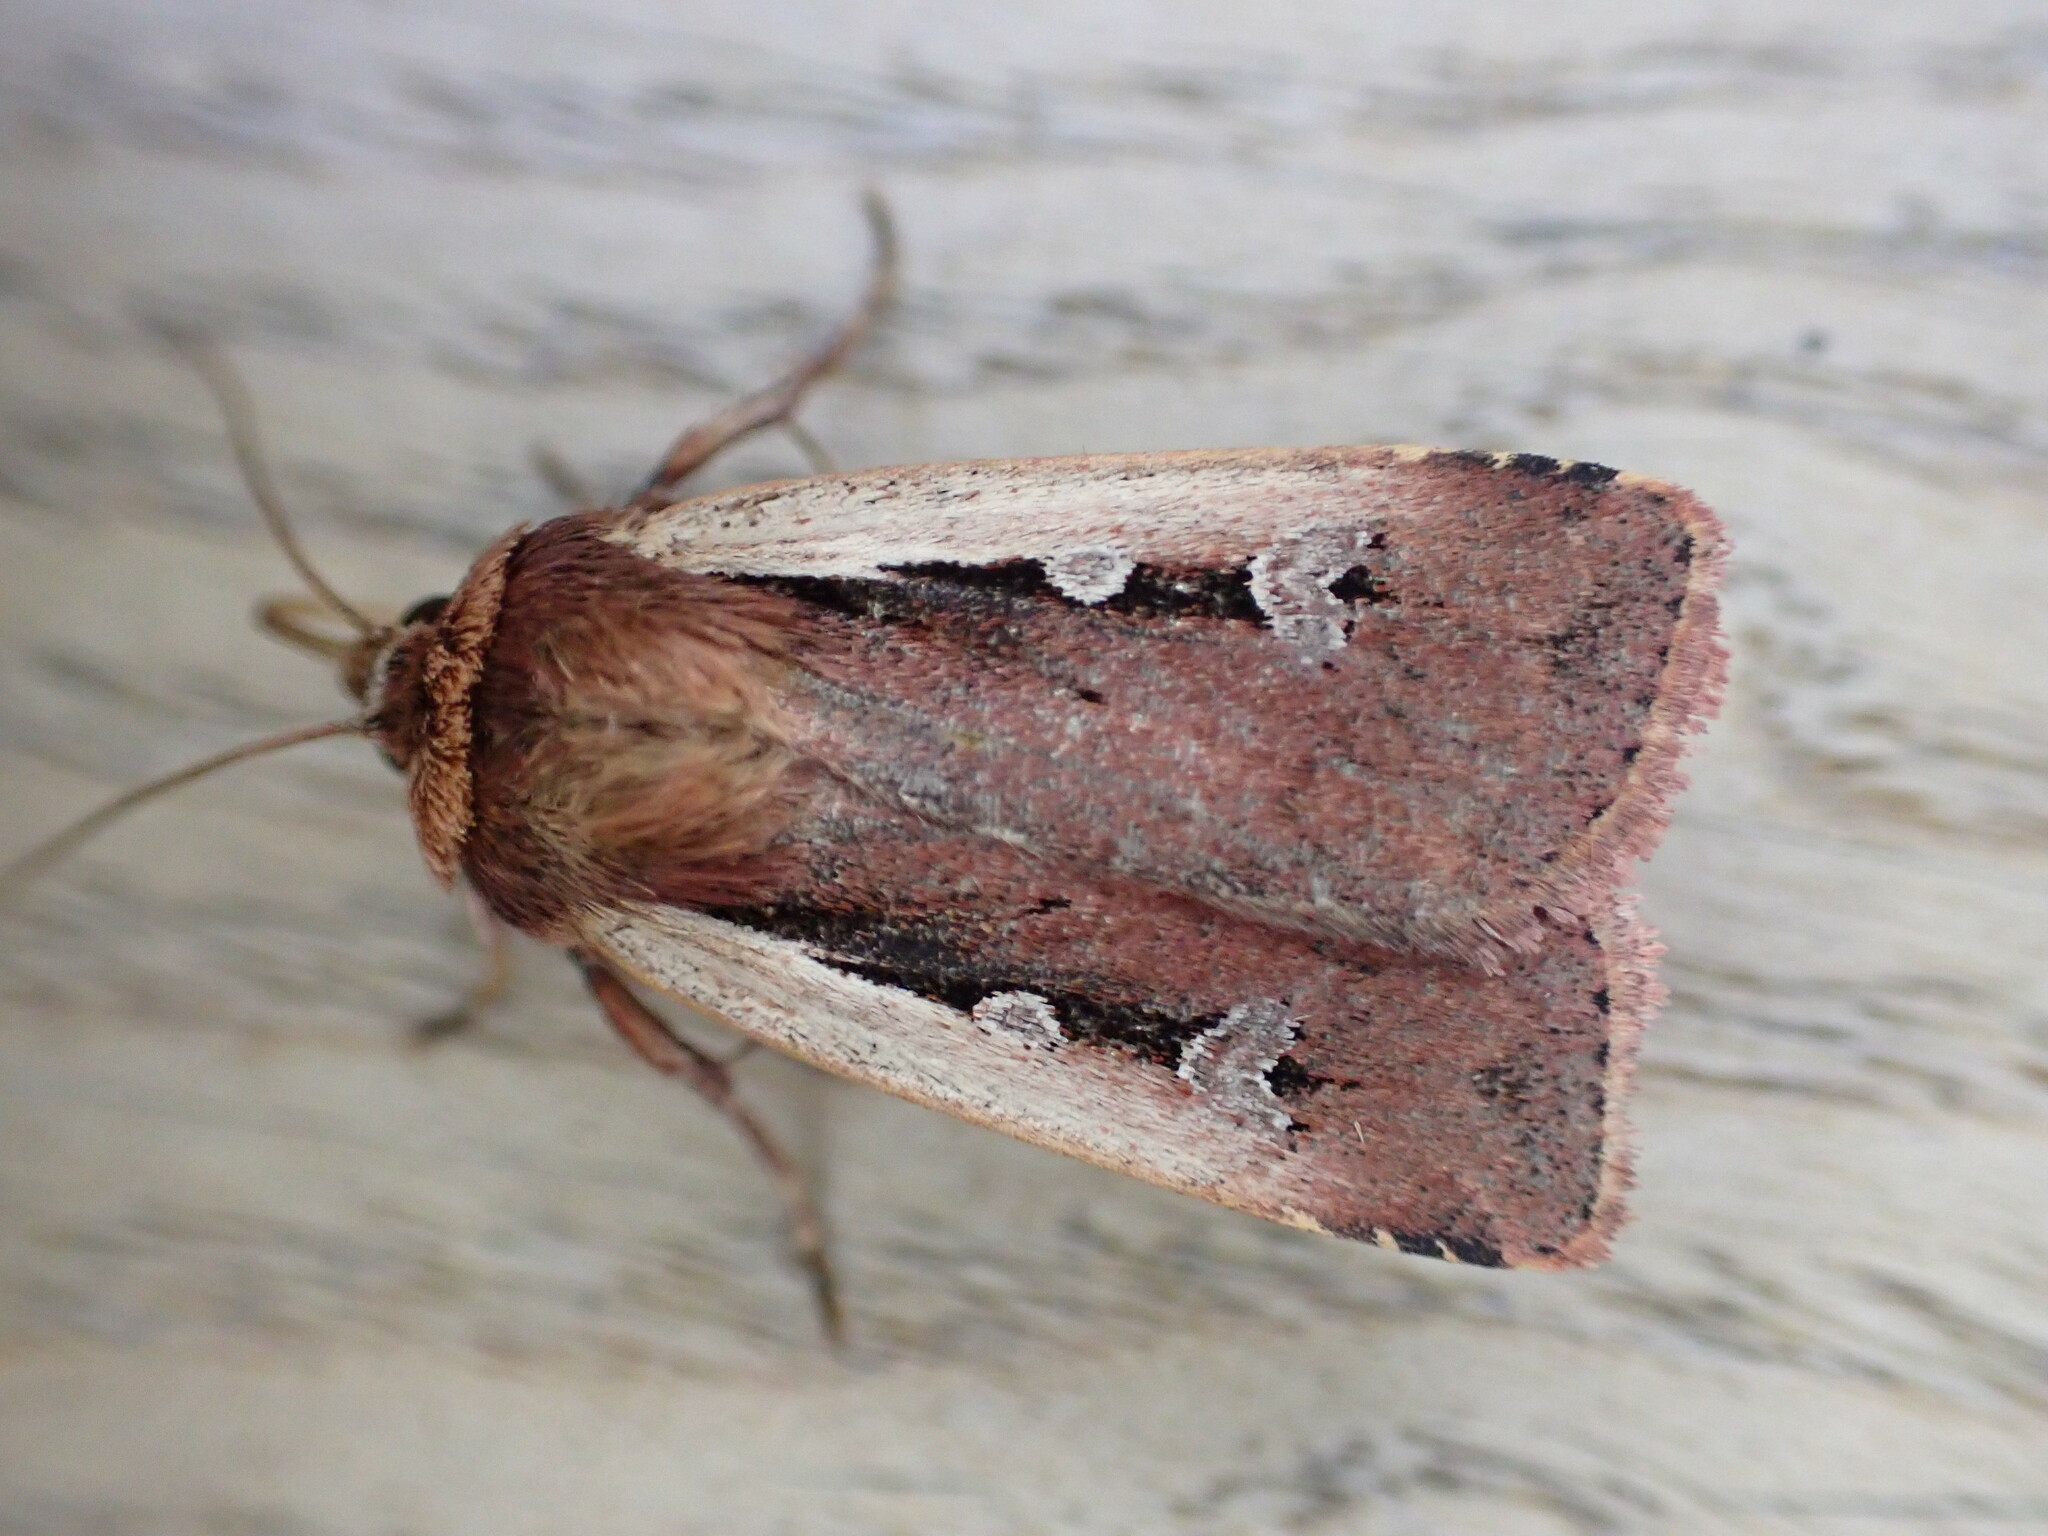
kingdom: Animalia
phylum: Arthropoda
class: Insecta
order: Lepidoptera
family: Noctuidae
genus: Ochropleura
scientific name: Ochropleura plecta
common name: Flame shoulder
